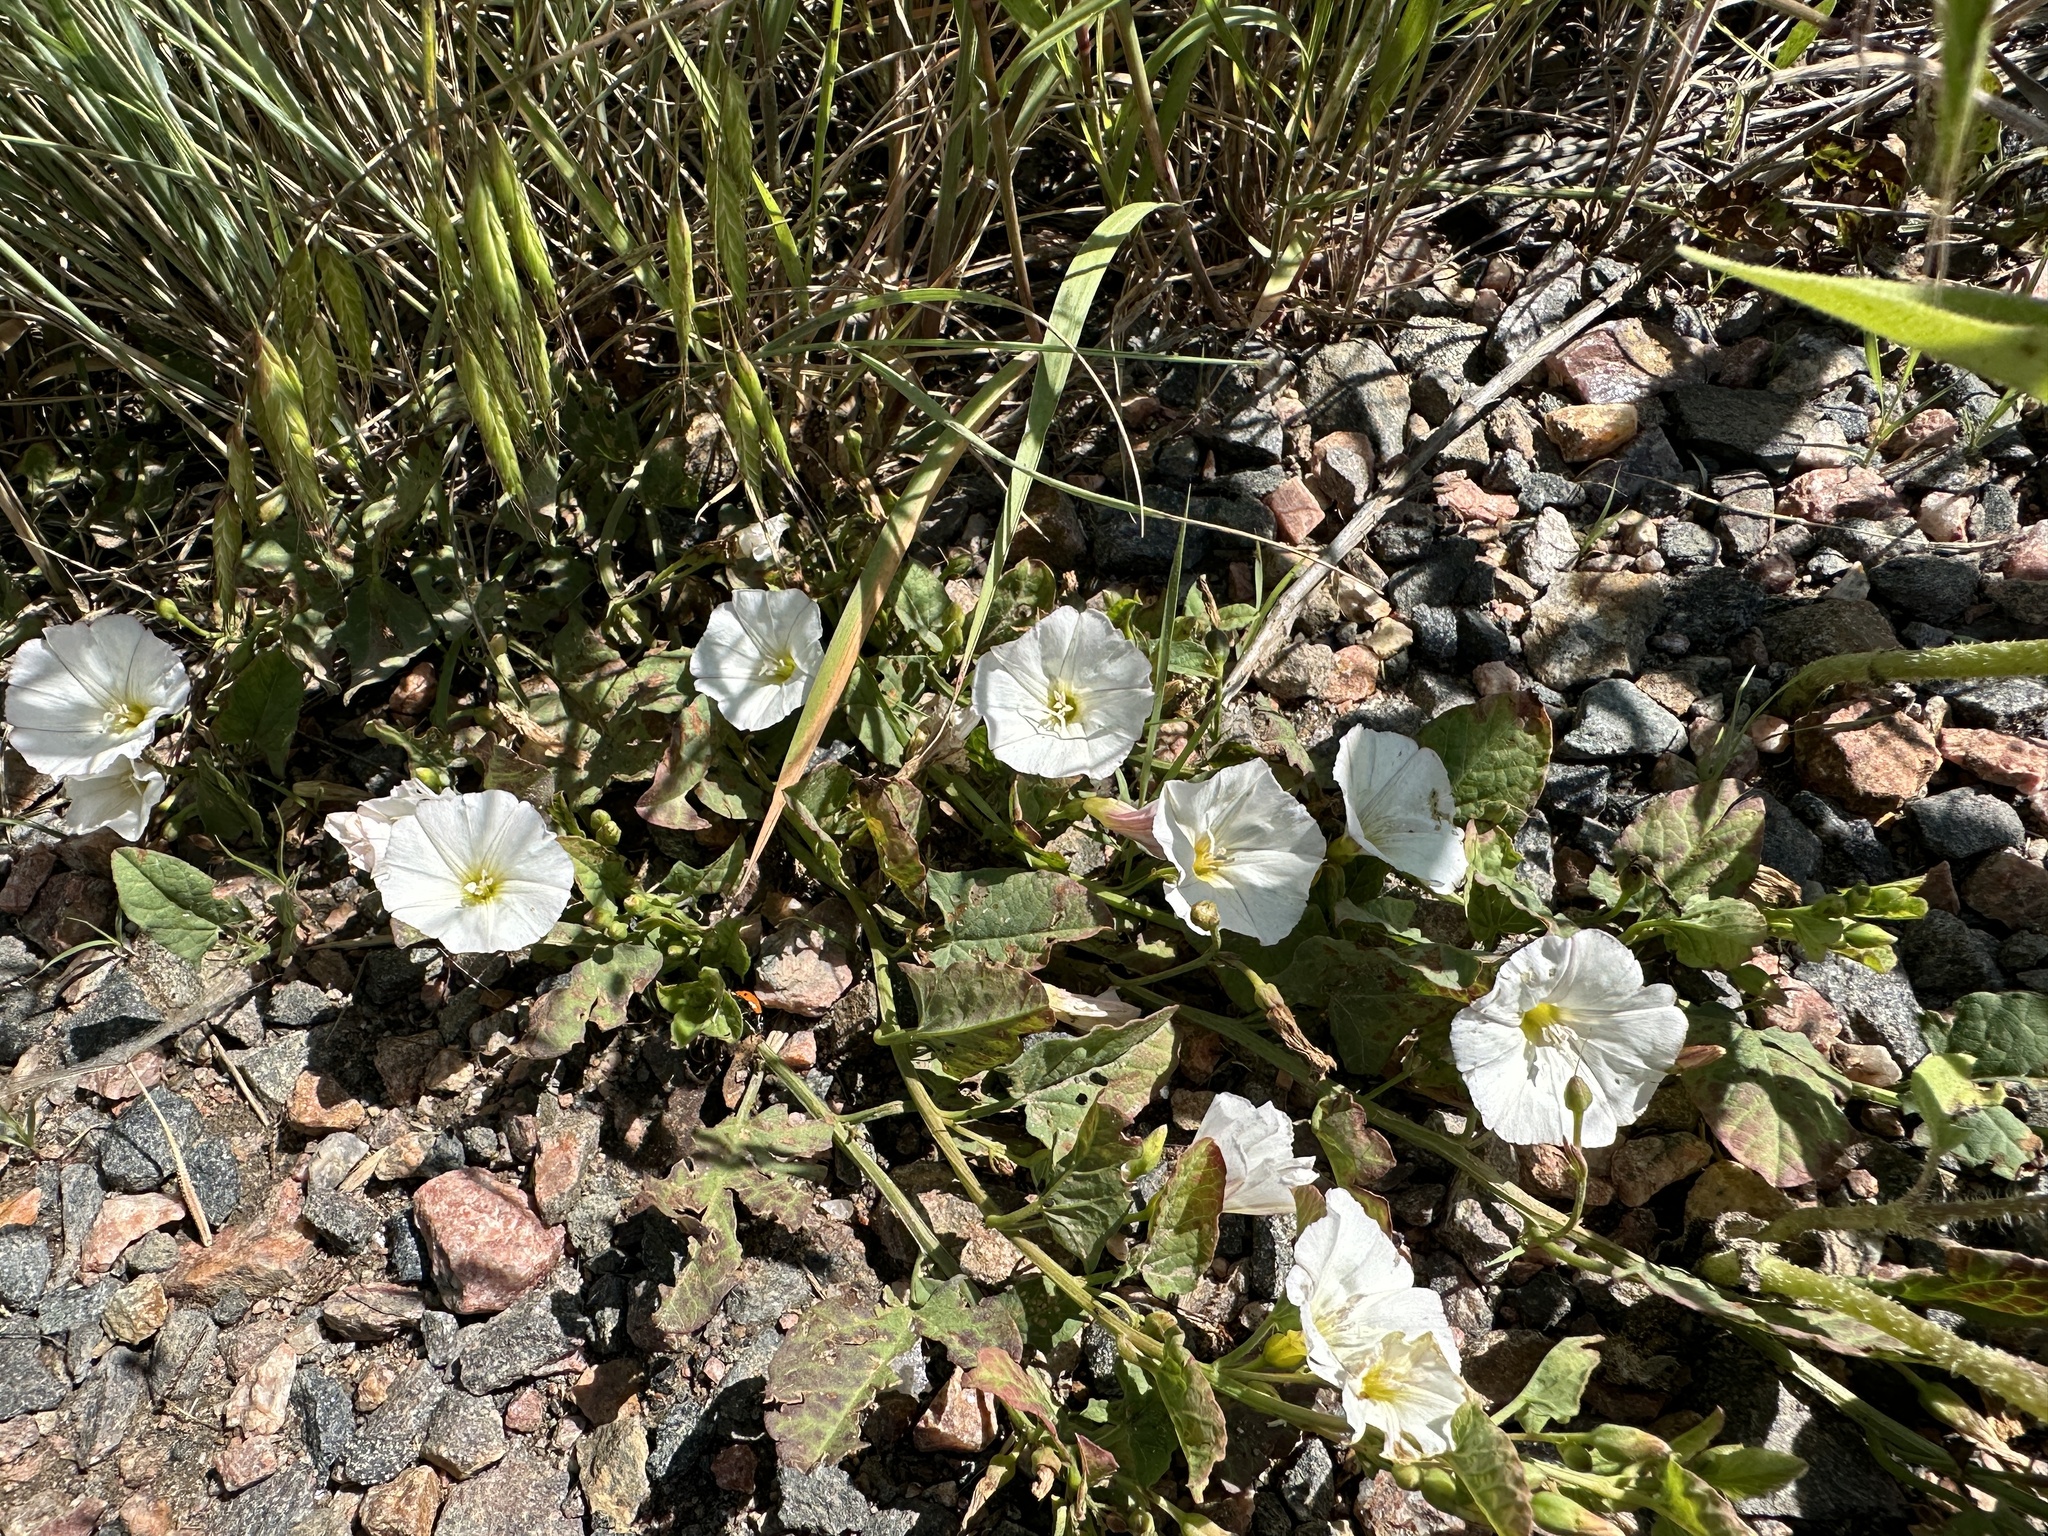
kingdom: Plantae
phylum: Tracheophyta
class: Magnoliopsida
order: Solanales
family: Convolvulaceae
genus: Convolvulus
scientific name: Convolvulus arvensis
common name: Field bindweed
